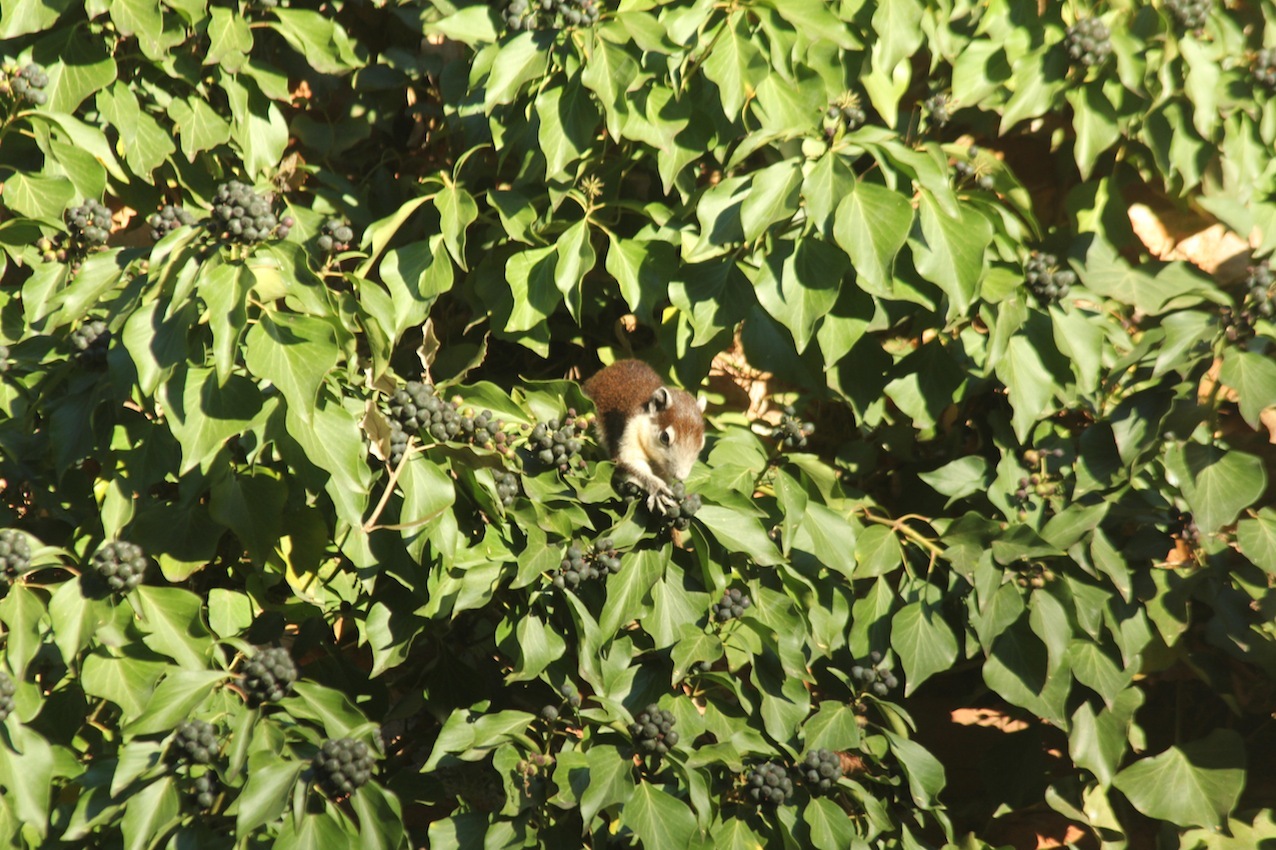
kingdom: Animalia
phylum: Chordata
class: Mammalia
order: Rodentia
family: Sciuridae
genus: Callosciurus
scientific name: Callosciurus finlaysonii
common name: Finlayson's squirrel
